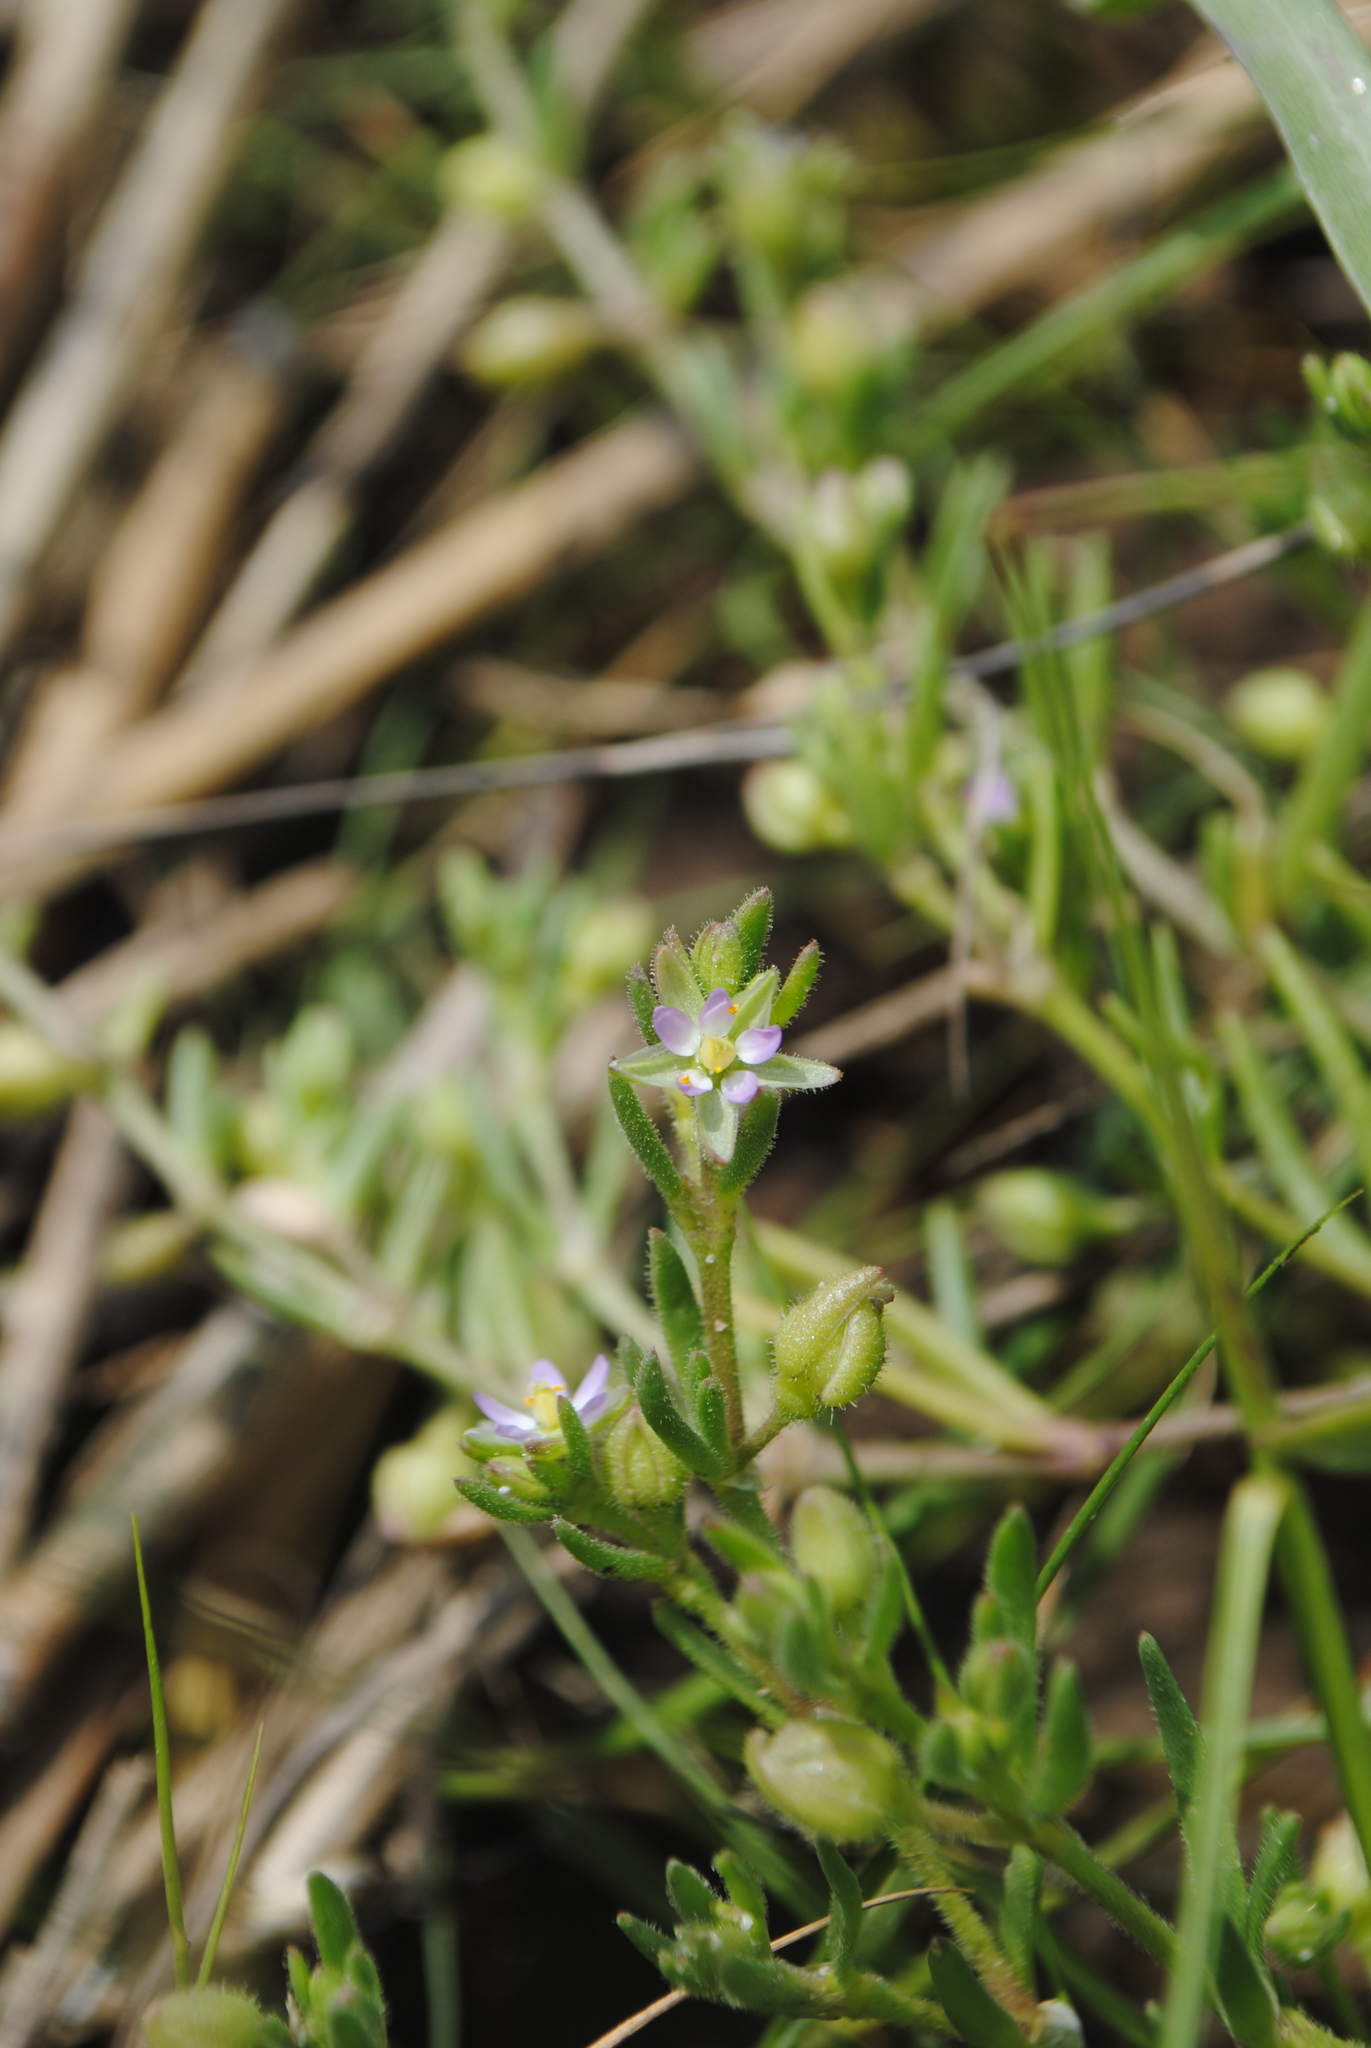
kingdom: Plantae
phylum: Tracheophyta
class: Magnoliopsida
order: Caryophyllales
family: Caryophyllaceae
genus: Spergularia
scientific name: Spergularia marina
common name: Lesser sea-spurrey
